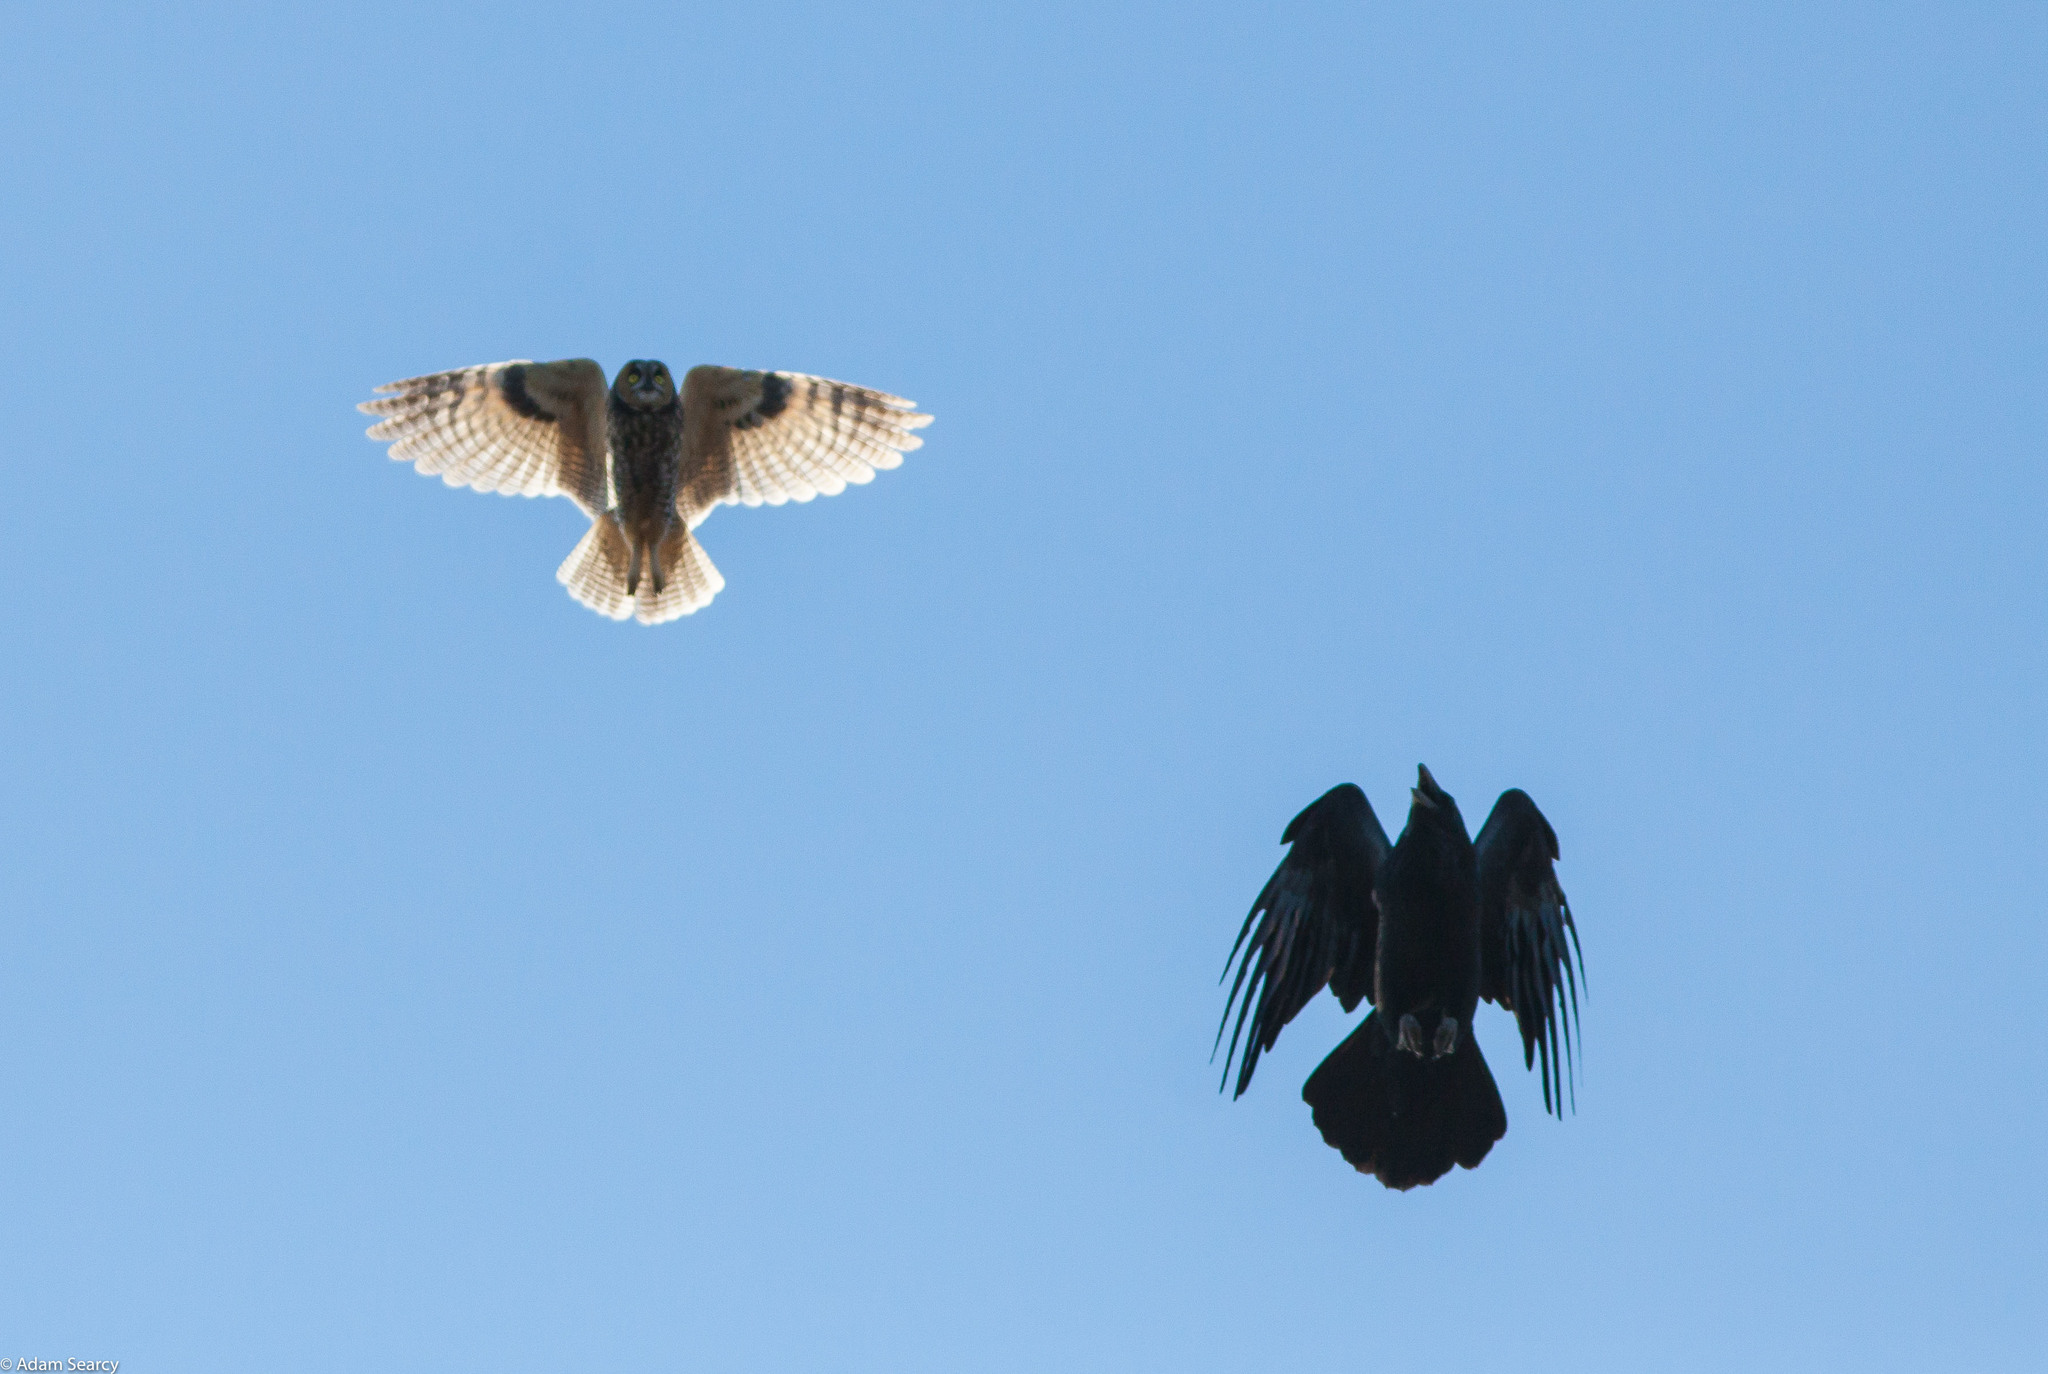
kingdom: Animalia
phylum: Chordata
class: Aves
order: Strigiformes
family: Strigidae
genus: Asio
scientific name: Asio otus
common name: Long-eared owl
